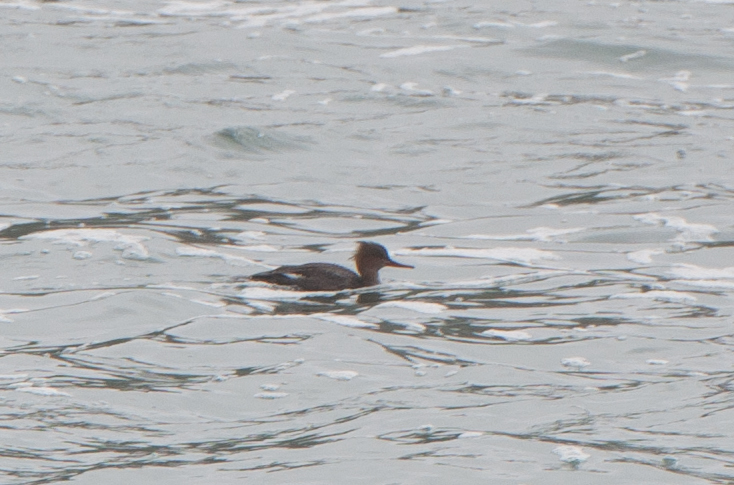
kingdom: Animalia
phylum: Chordata
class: Aves
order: Anseriformes
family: Anatidae
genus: Mergus
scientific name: Mergus serrator
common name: Red-breasted merganser
